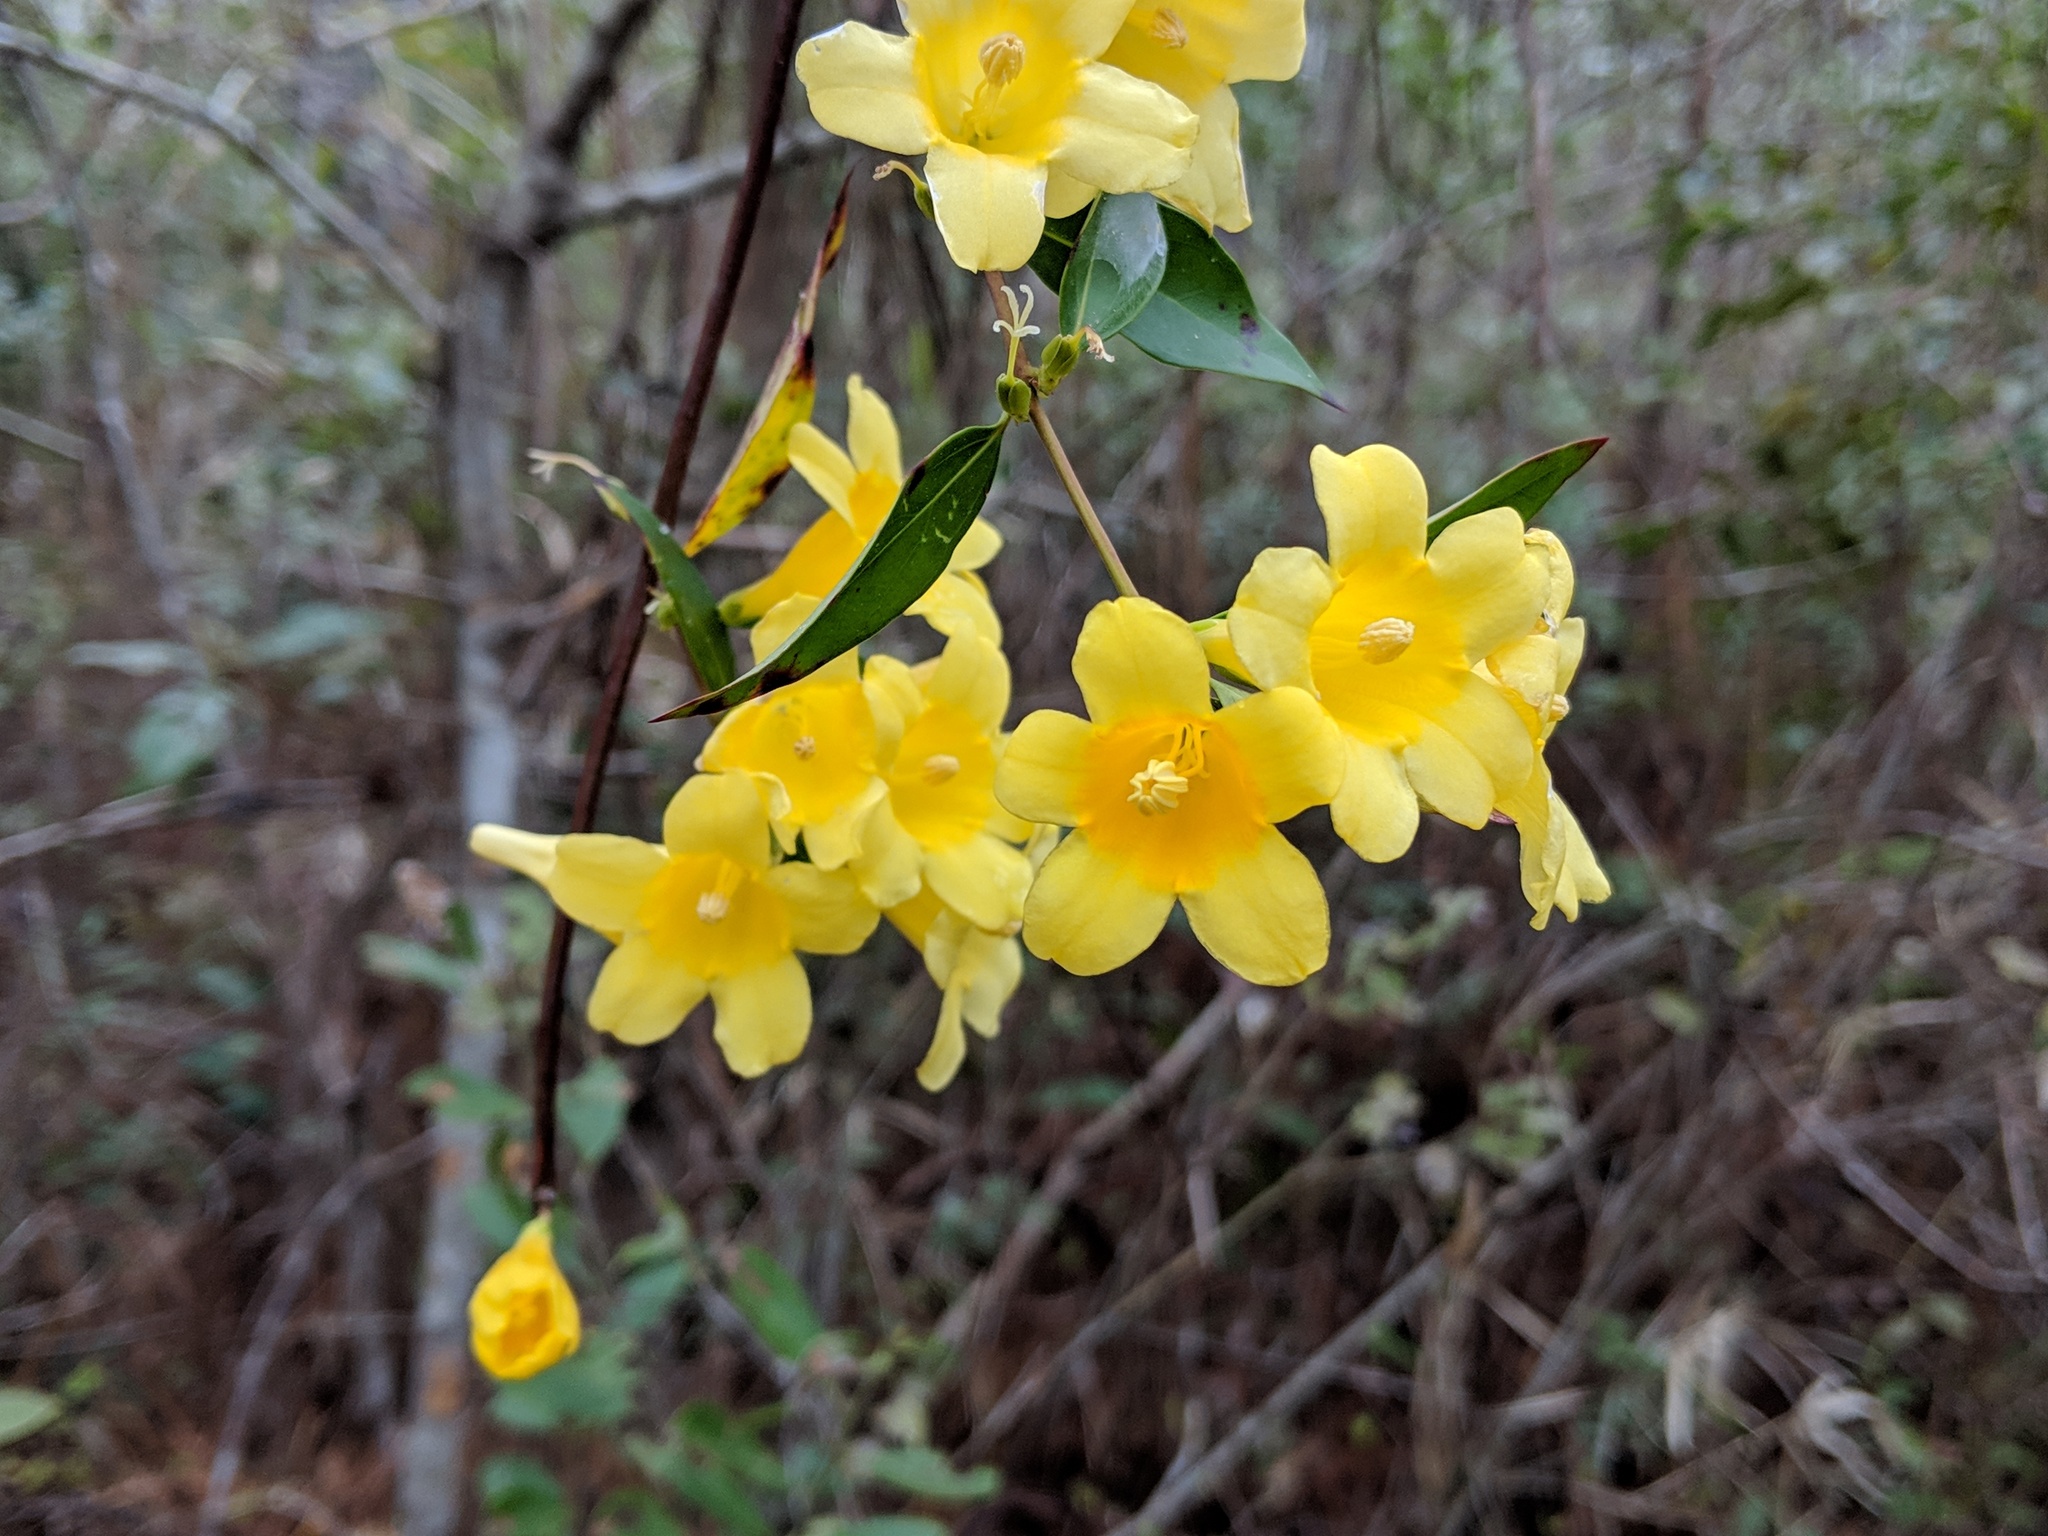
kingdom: Plantae
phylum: Tracheophyta
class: Magnoliopsida
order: Gentianales
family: Gelsemiaceae
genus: Gelsemium
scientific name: Gelsemium sempervirens
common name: Carolina-jasmine
